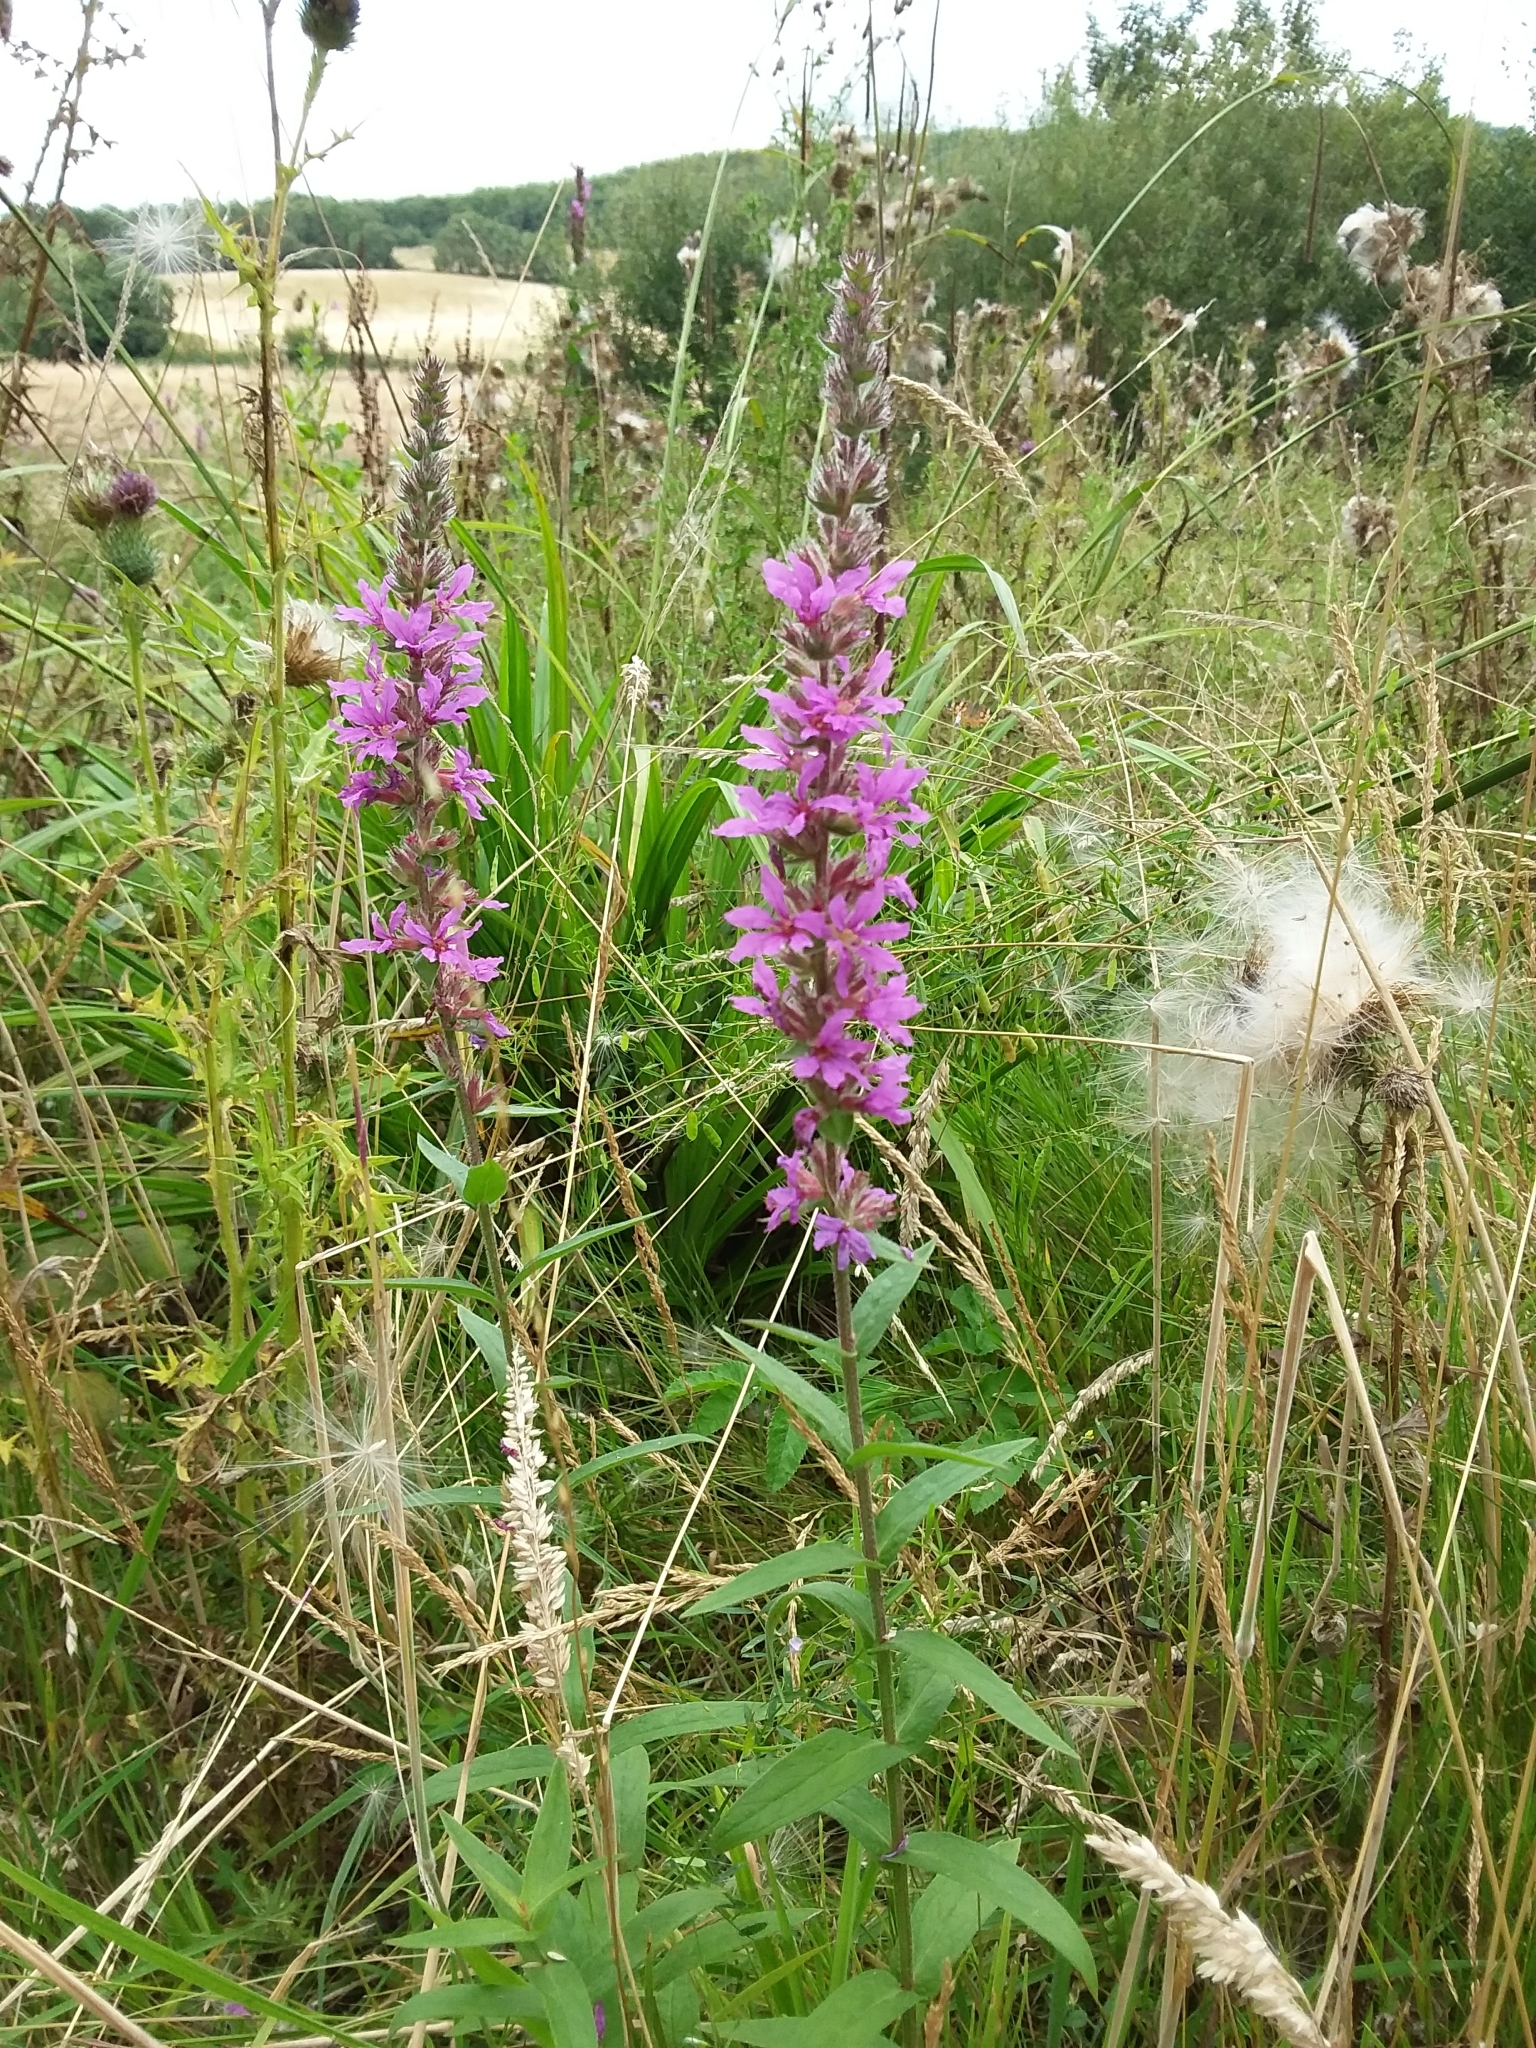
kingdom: Plantae
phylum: Tracheophyta
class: Magnoliopsida
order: Myrtales
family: Lythraceae
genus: Lythrum
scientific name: Lythrum salicaria
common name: Purple loosestrife
